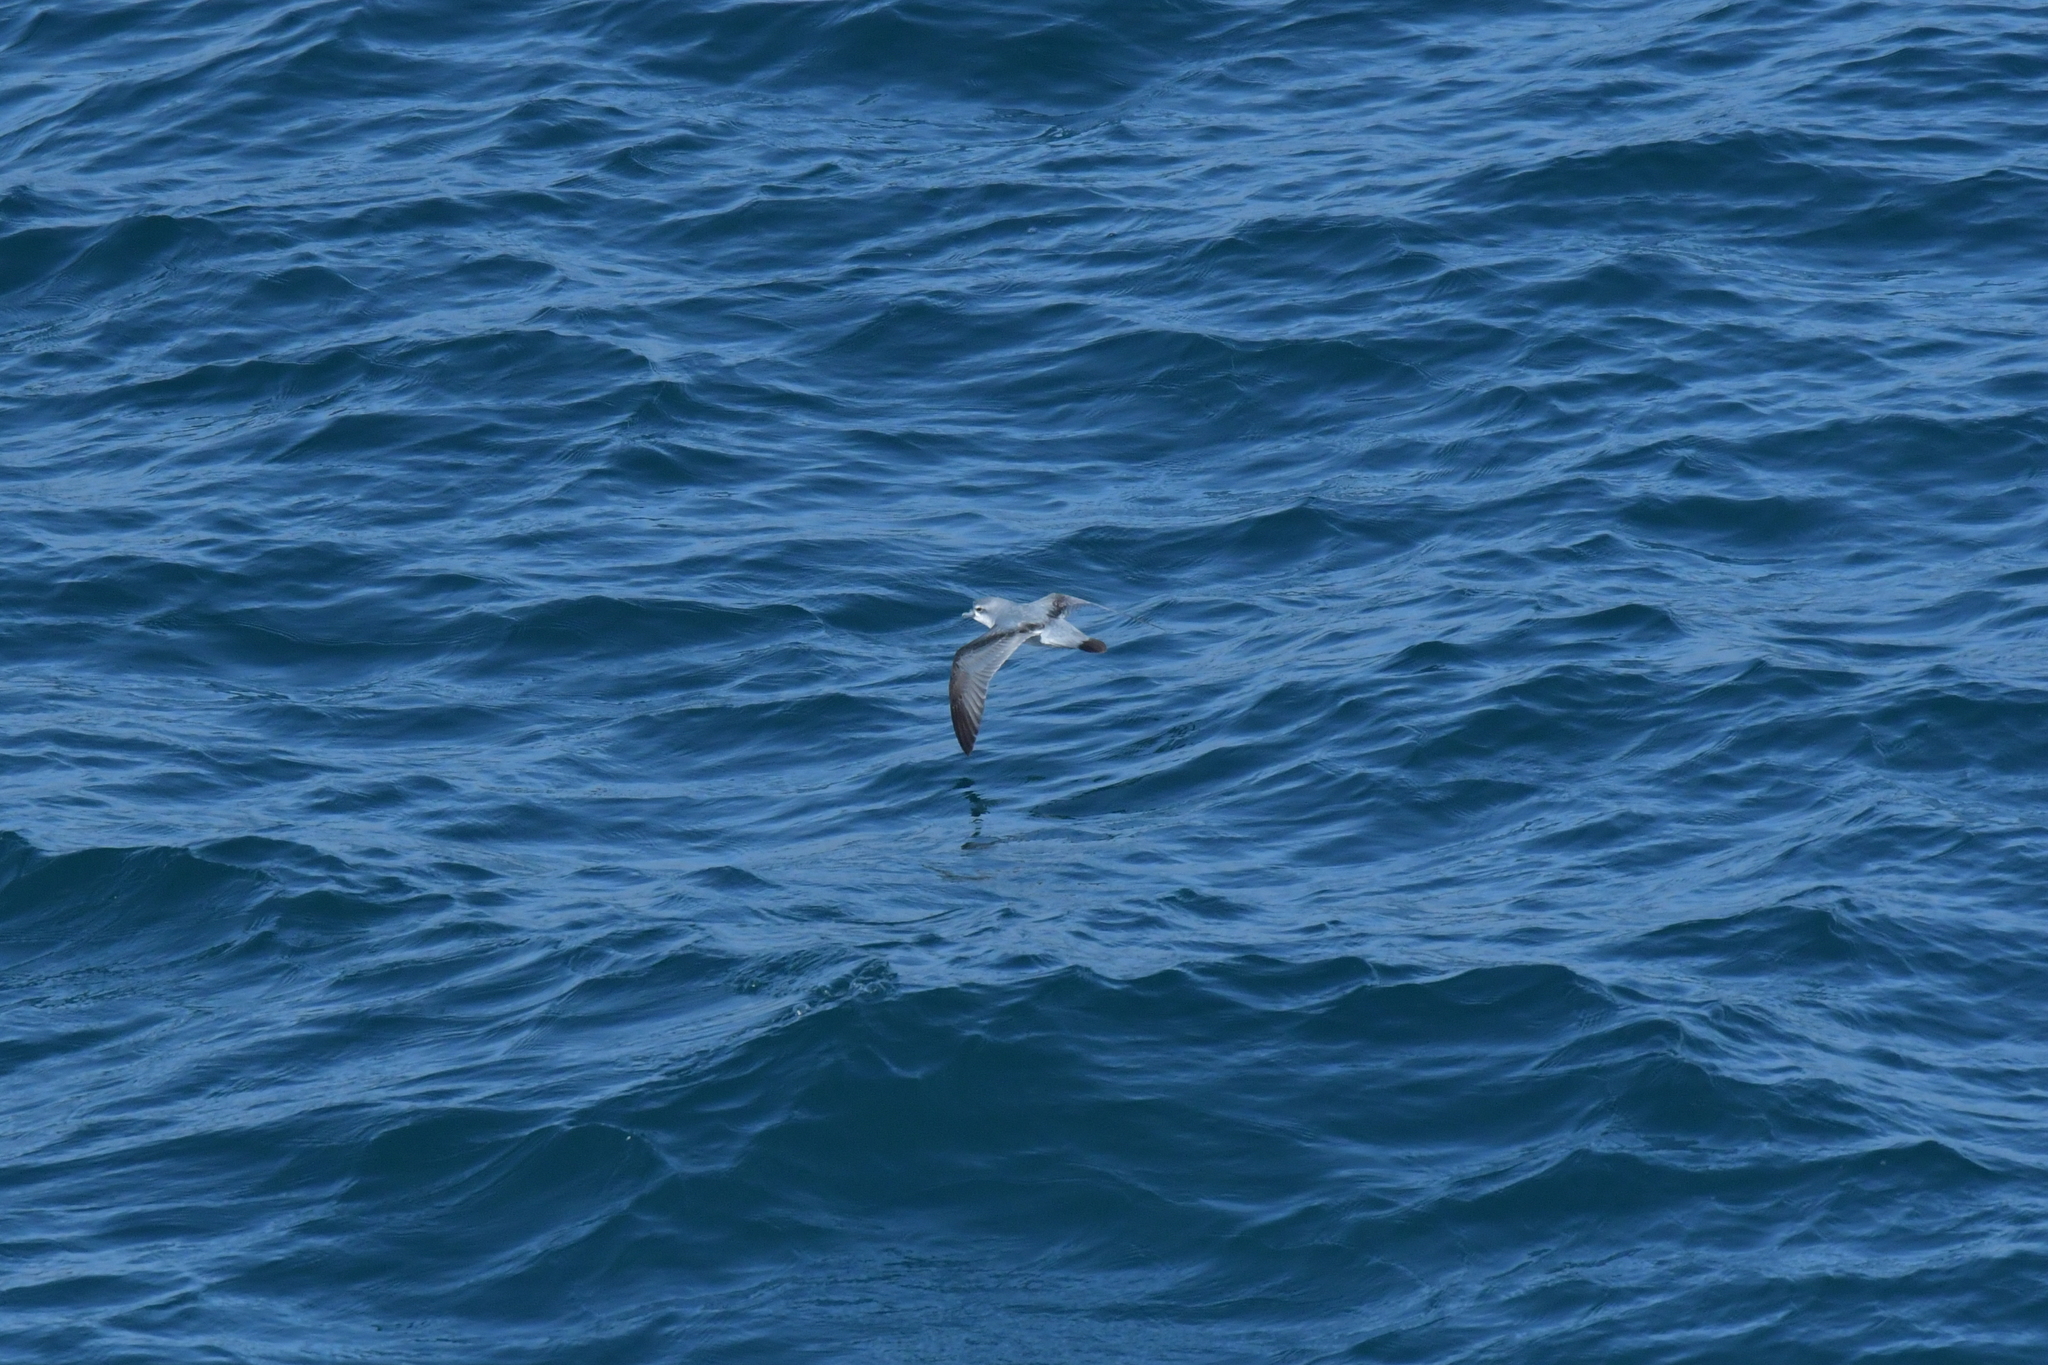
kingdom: Animalia
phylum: Chordata
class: Aves
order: Procellariiformes
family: Procellariidae
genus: Pachyptila
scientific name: Pachyptila turtur
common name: Fairy prion
